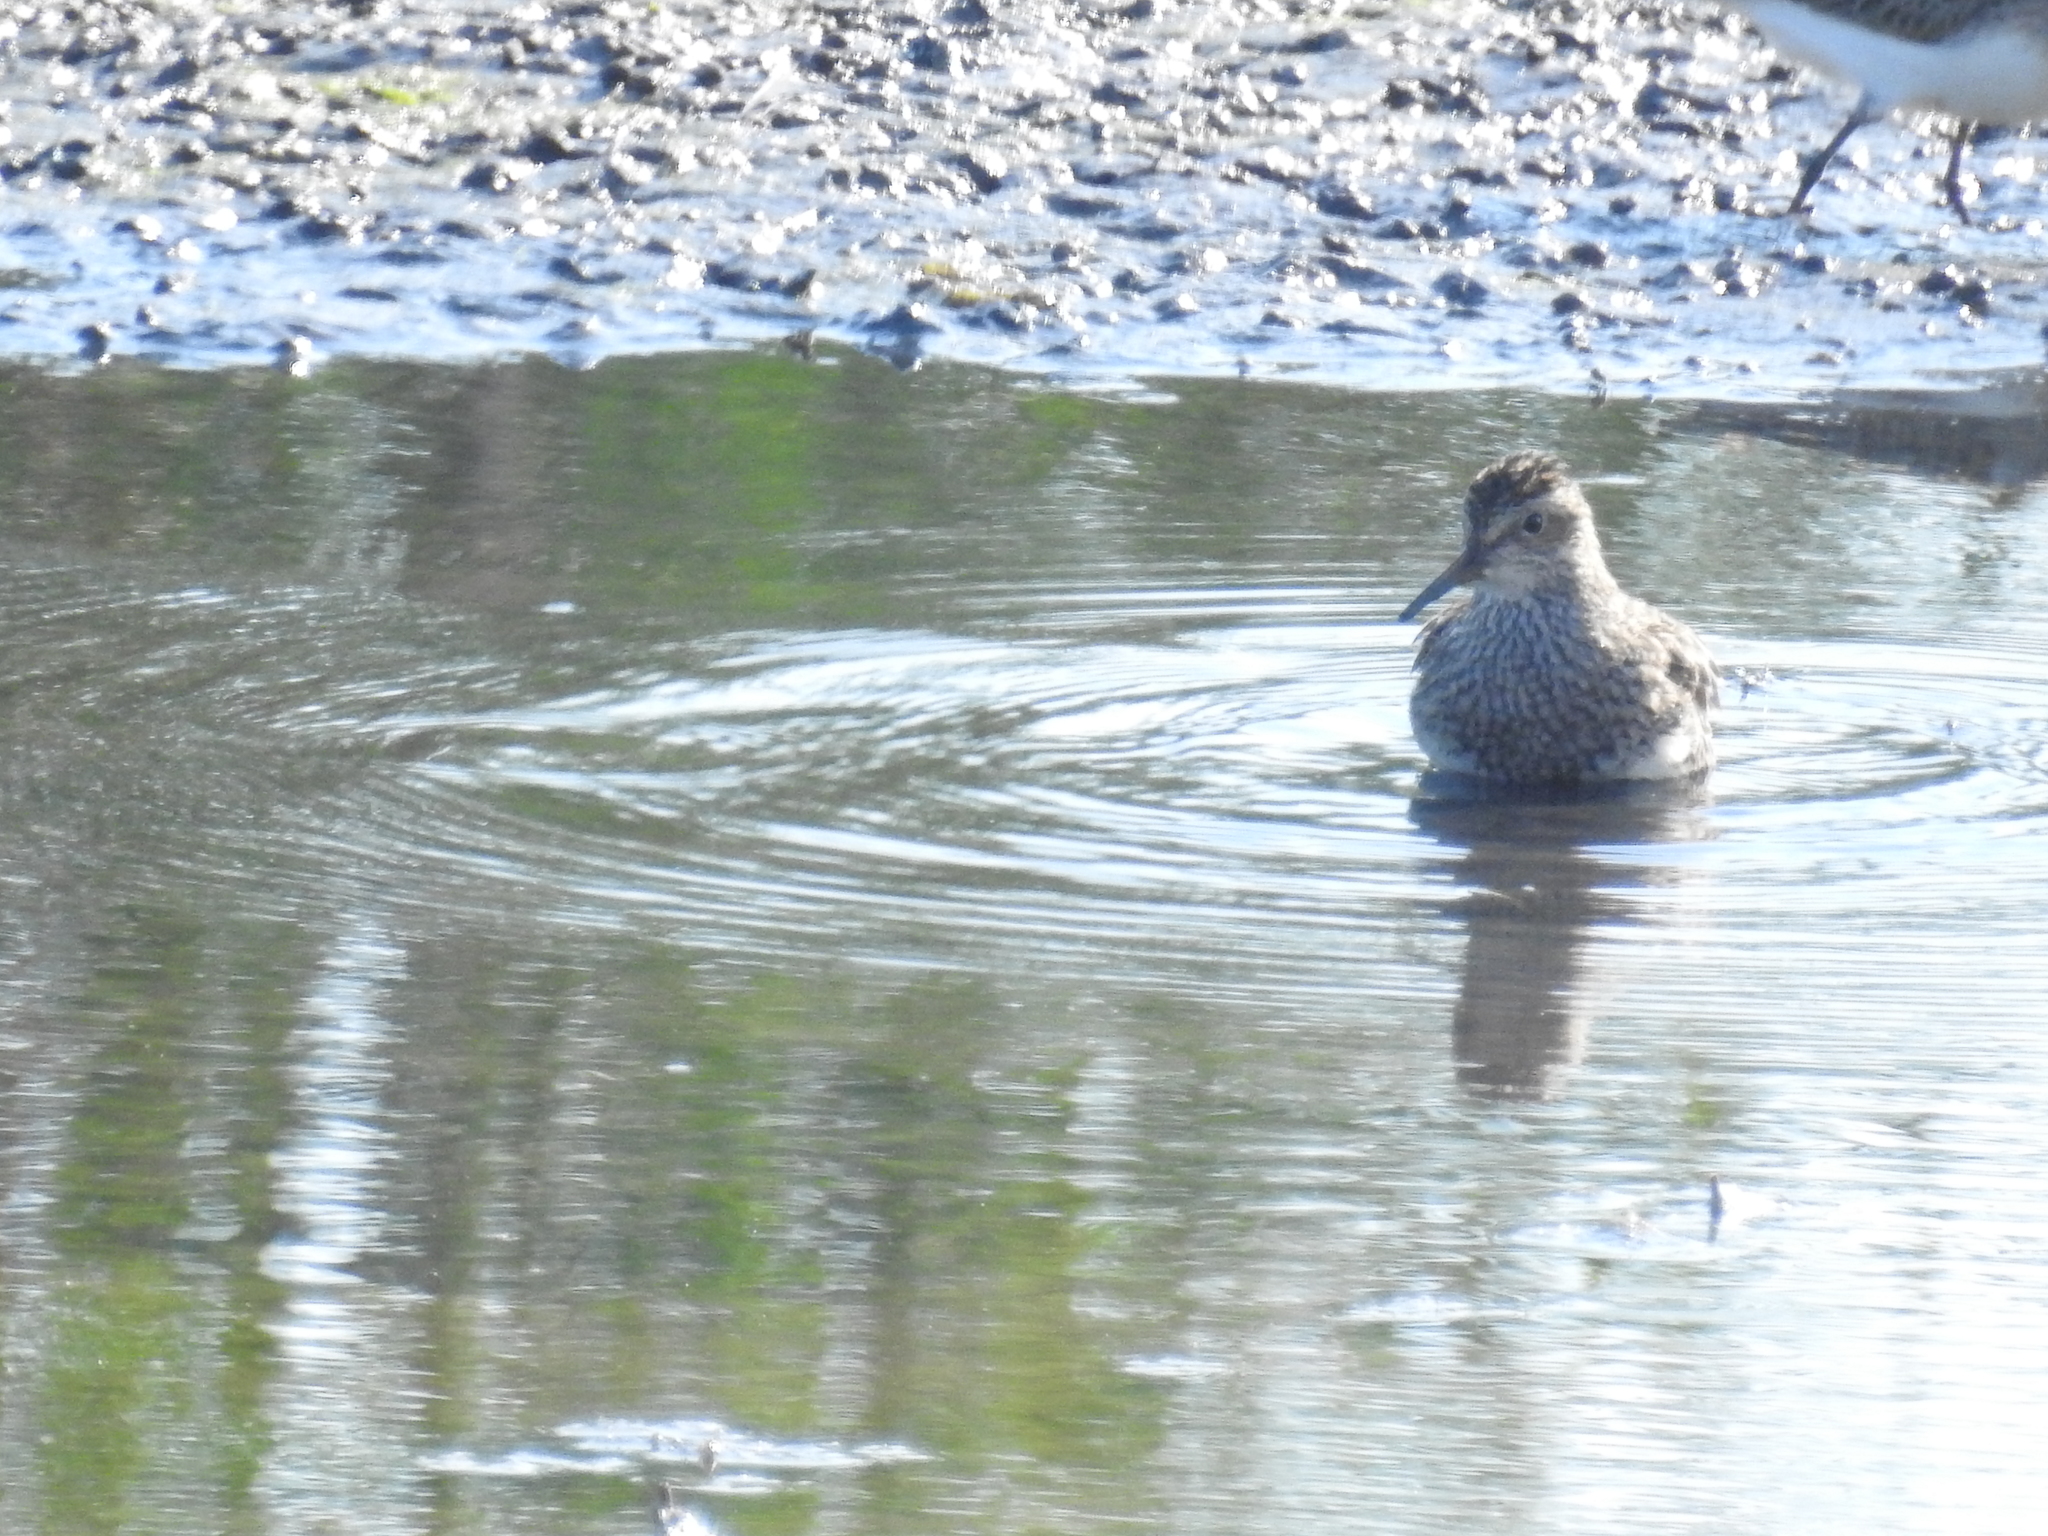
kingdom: Animalia
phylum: Chordata
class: Aves
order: Charadriiformes
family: Scolopacidae
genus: Calidris
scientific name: Calidris melanotos
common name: Pectoral sandpiper
